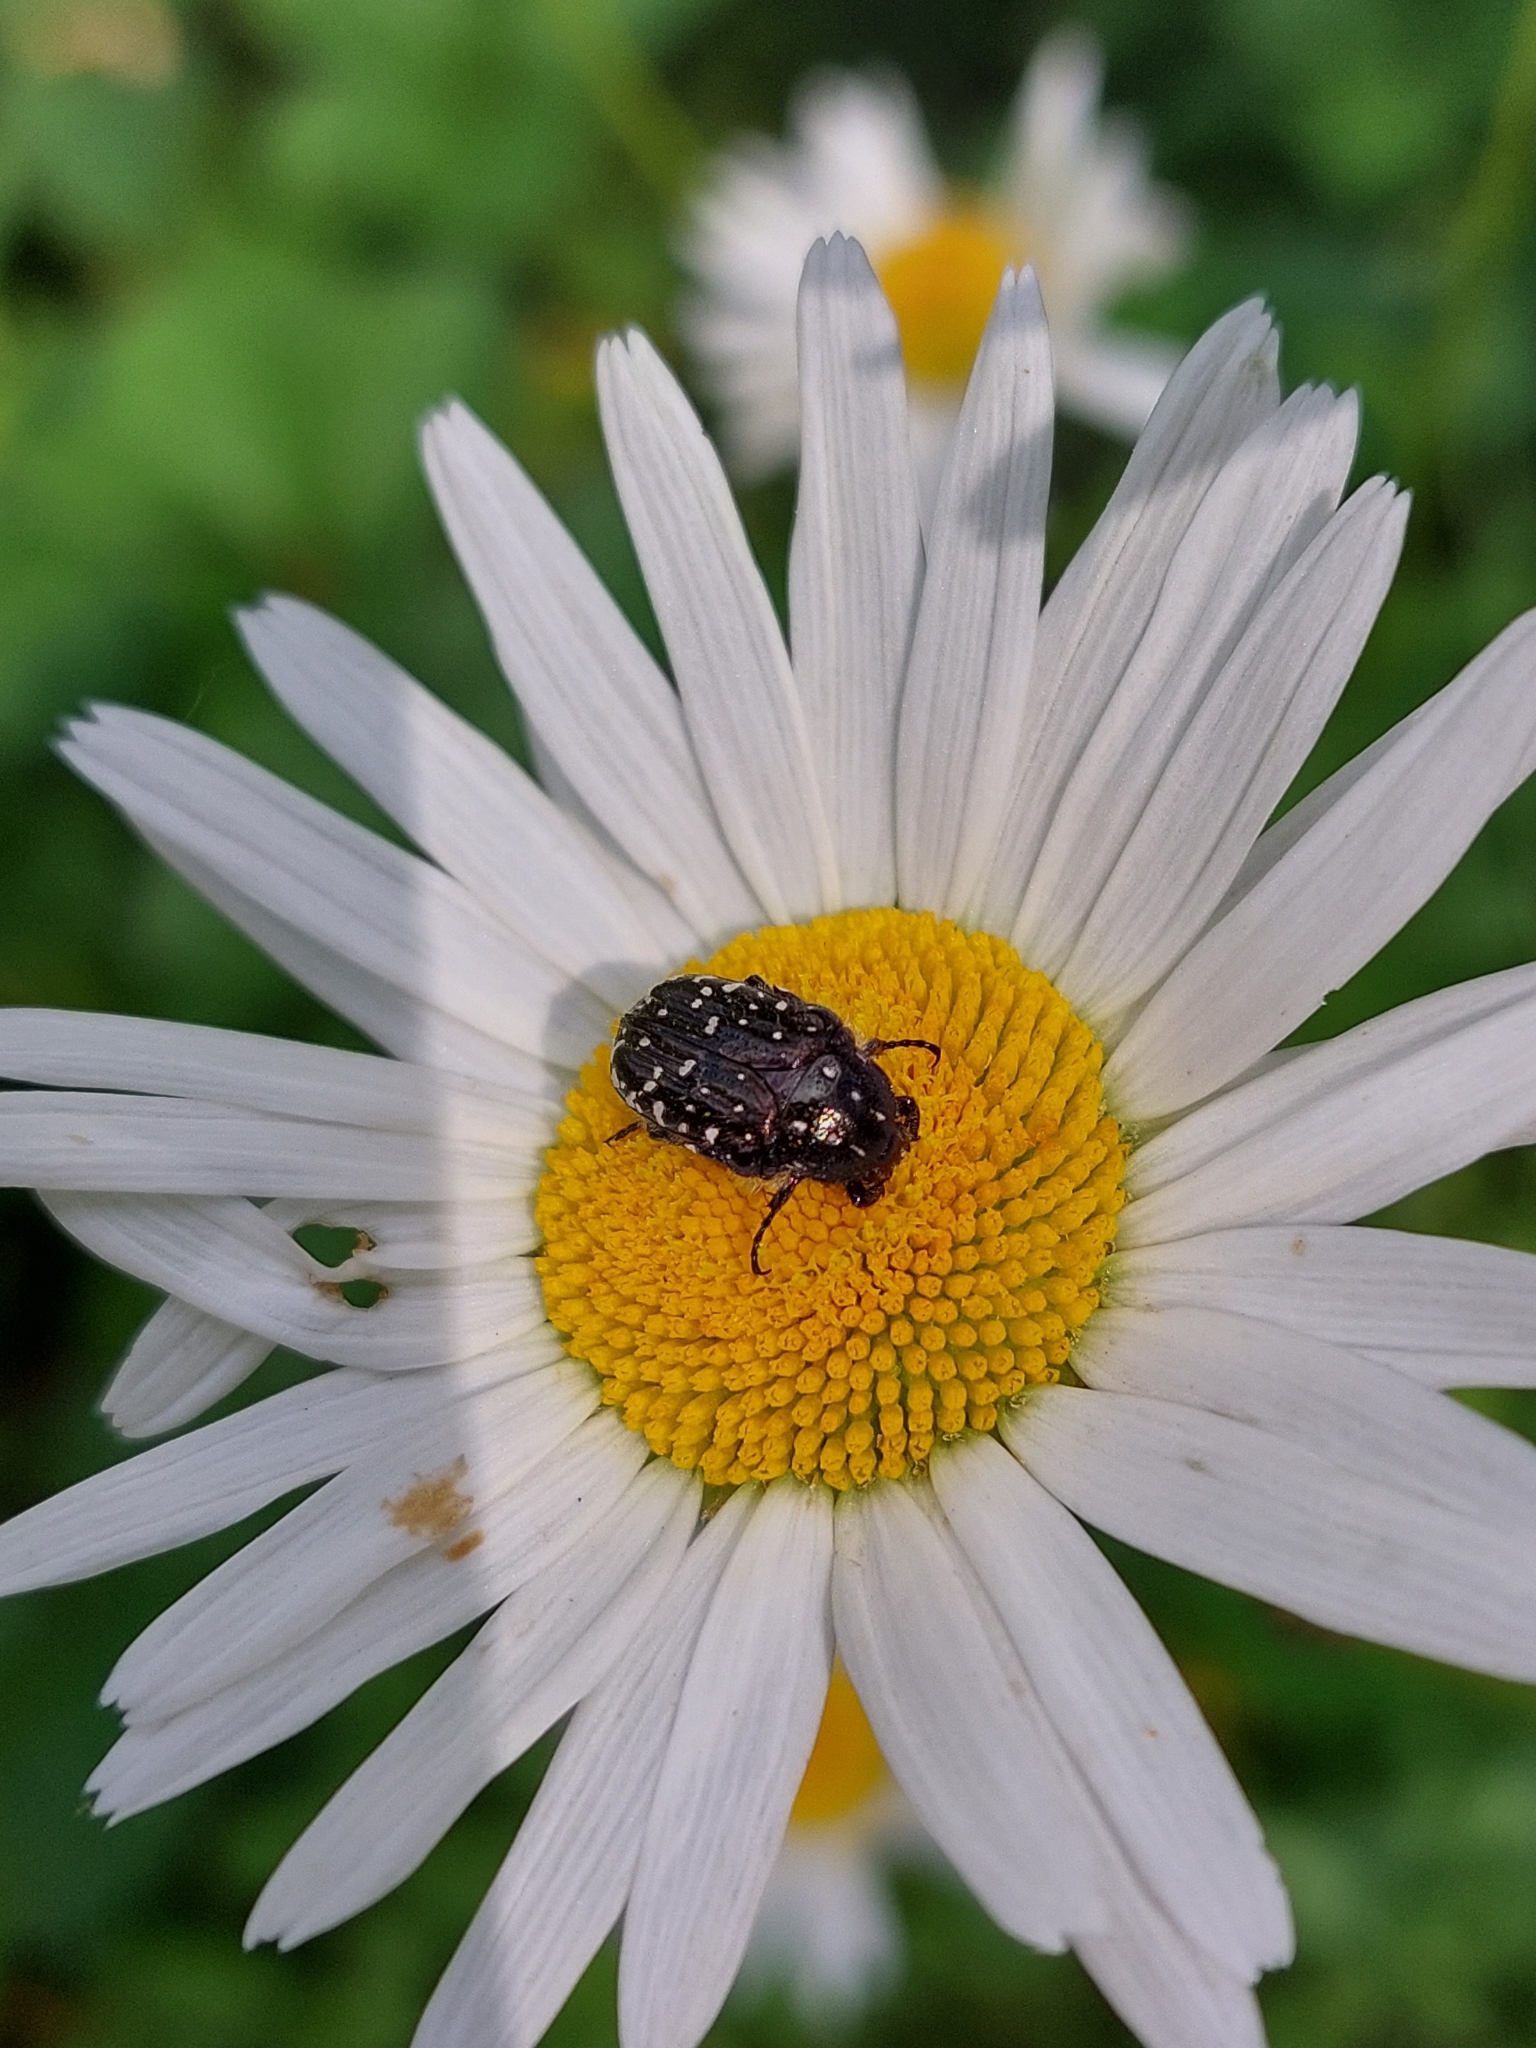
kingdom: Animalia
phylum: Arthropoda
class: Insecta
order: Coleoptera
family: Scarabaeidae
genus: Oxythyrea
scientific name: Oxythyrea funesta
